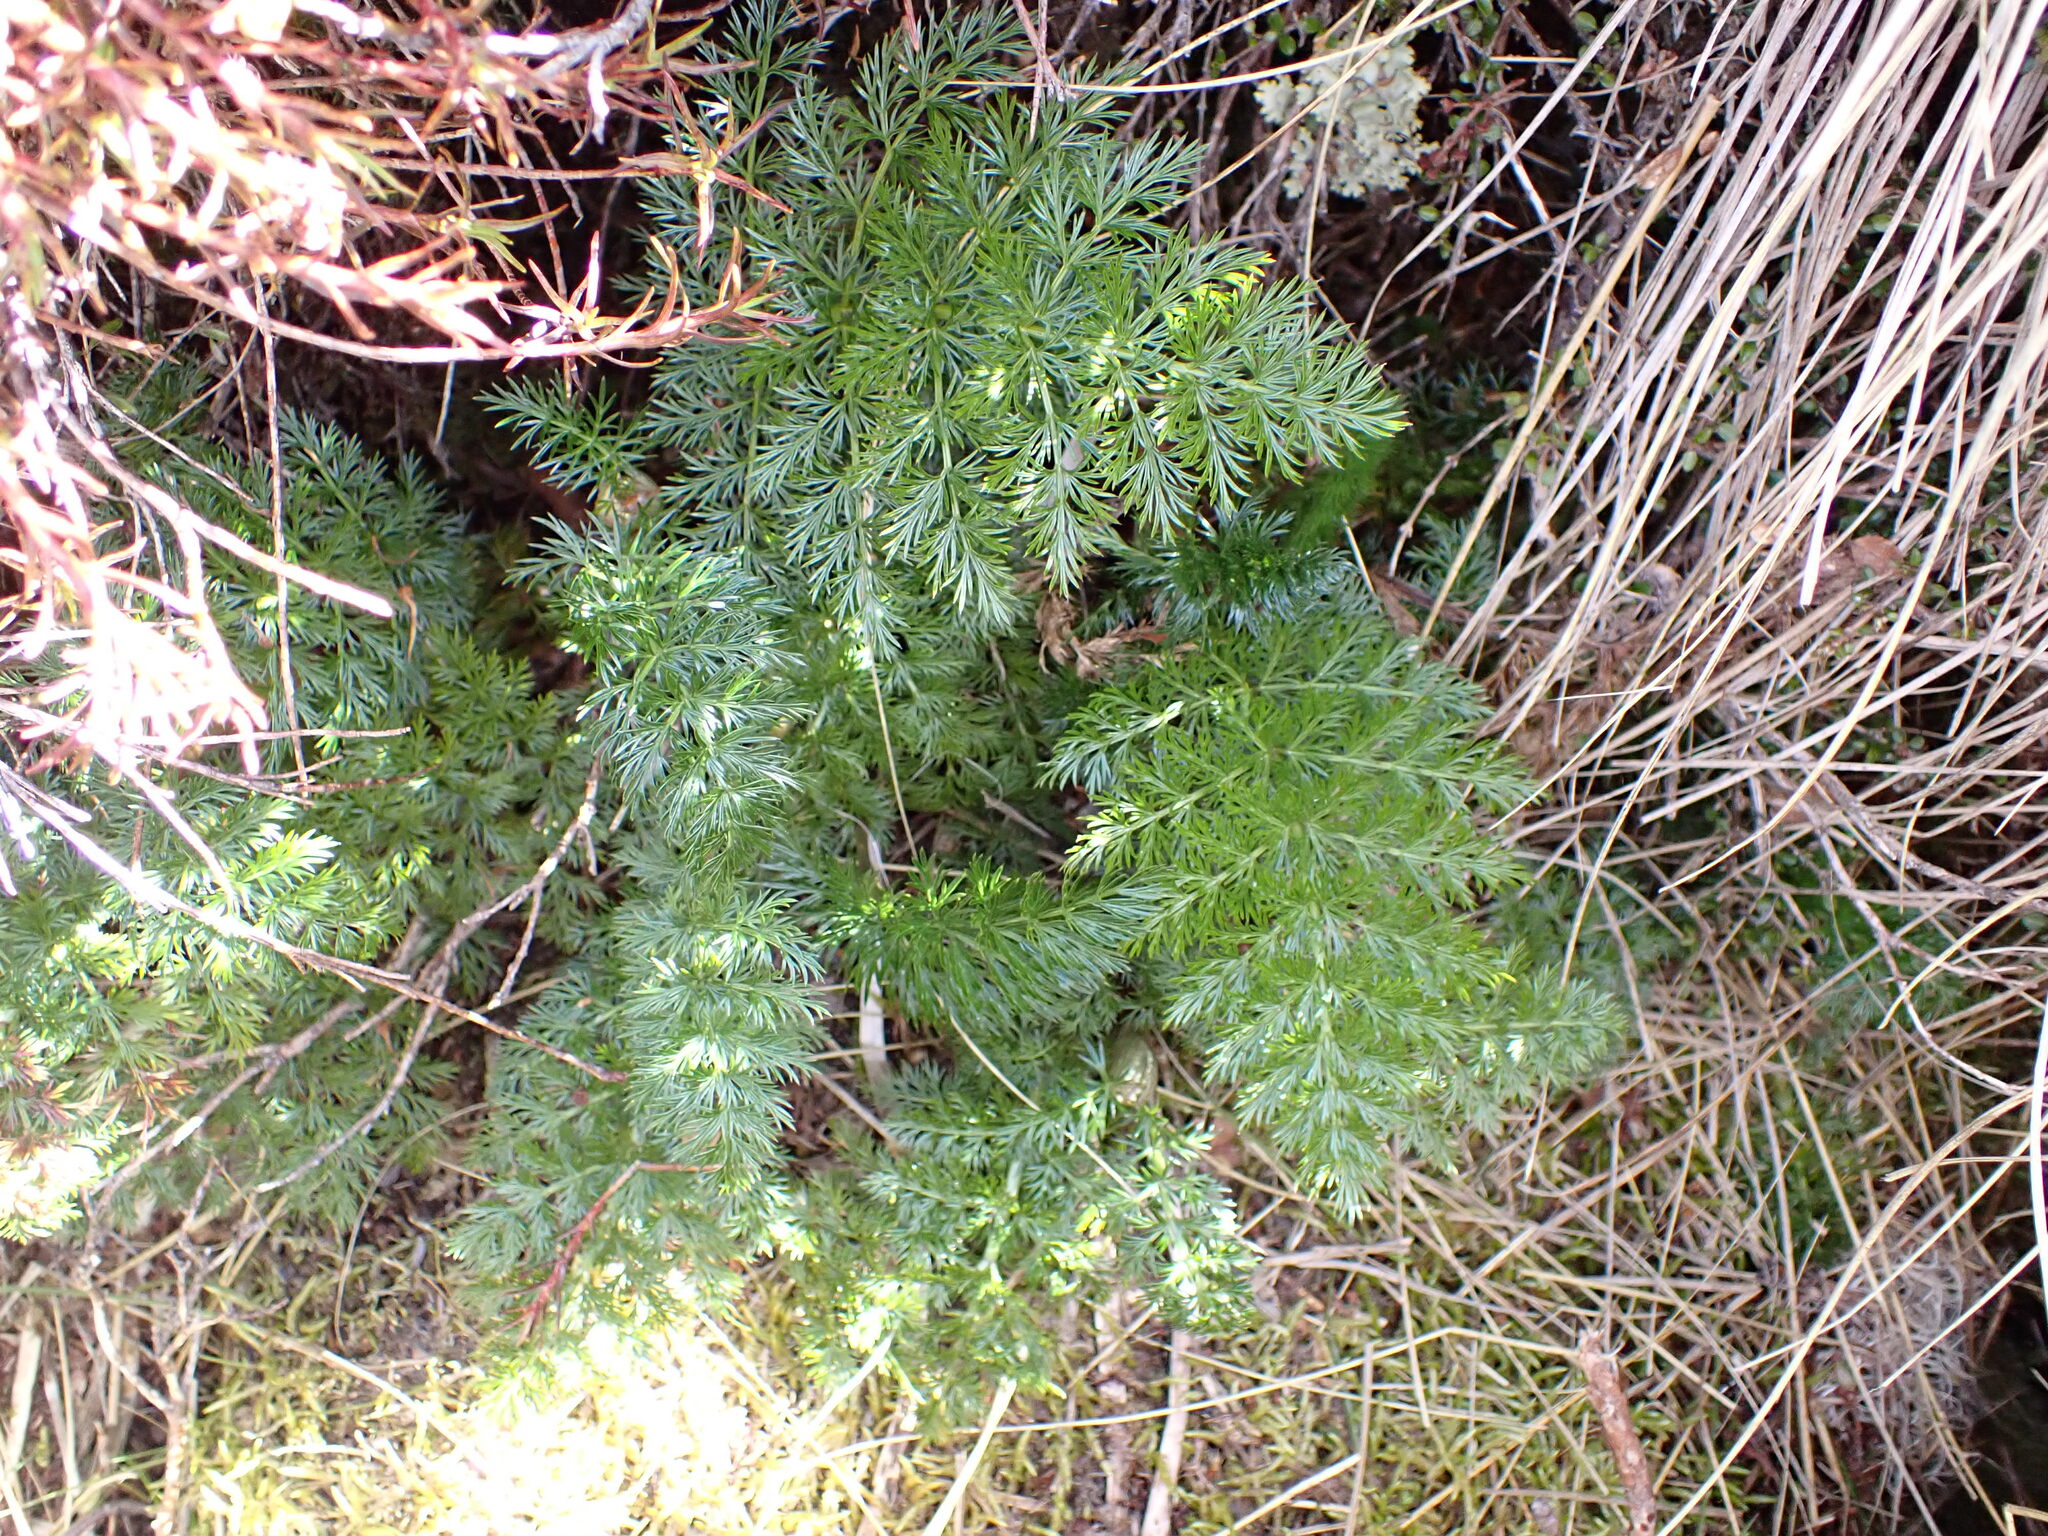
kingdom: Plantae
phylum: Tracheophyta
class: Magnoliopsida
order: Apiales
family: Apiaceae
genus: Anisotome
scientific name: Anisotome haastii
